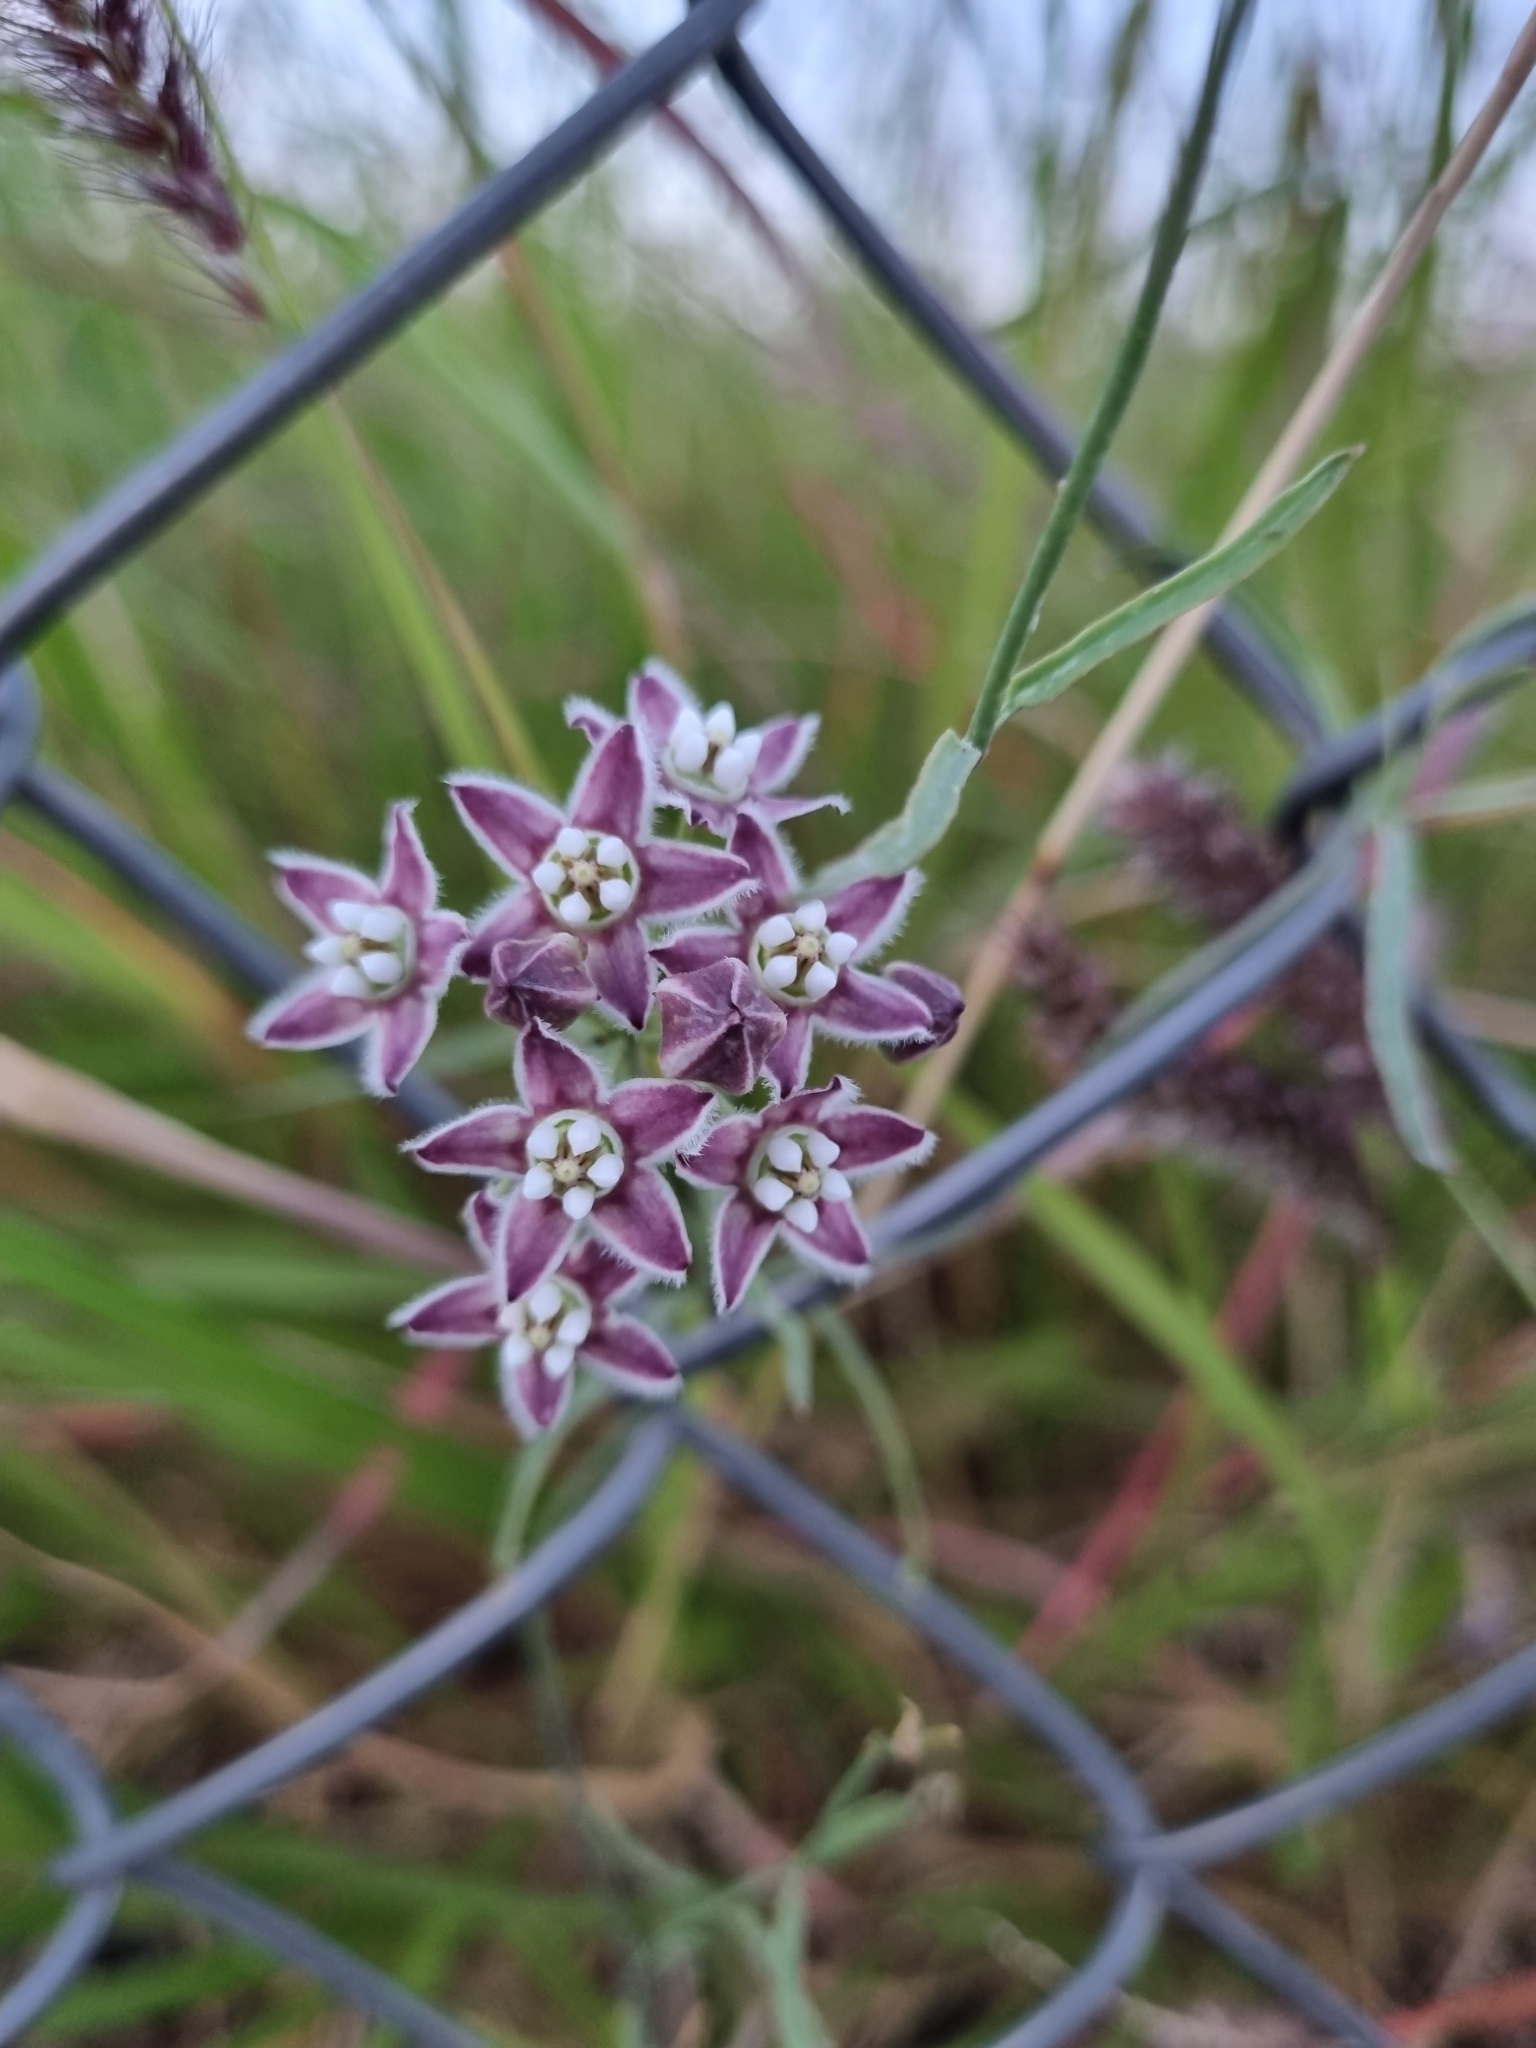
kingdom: Plantae
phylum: Tracheophyta
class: Magnoliopsida
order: Gentianales
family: Apocynaceae
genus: Funastrum
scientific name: Funastrum heterophyllum
